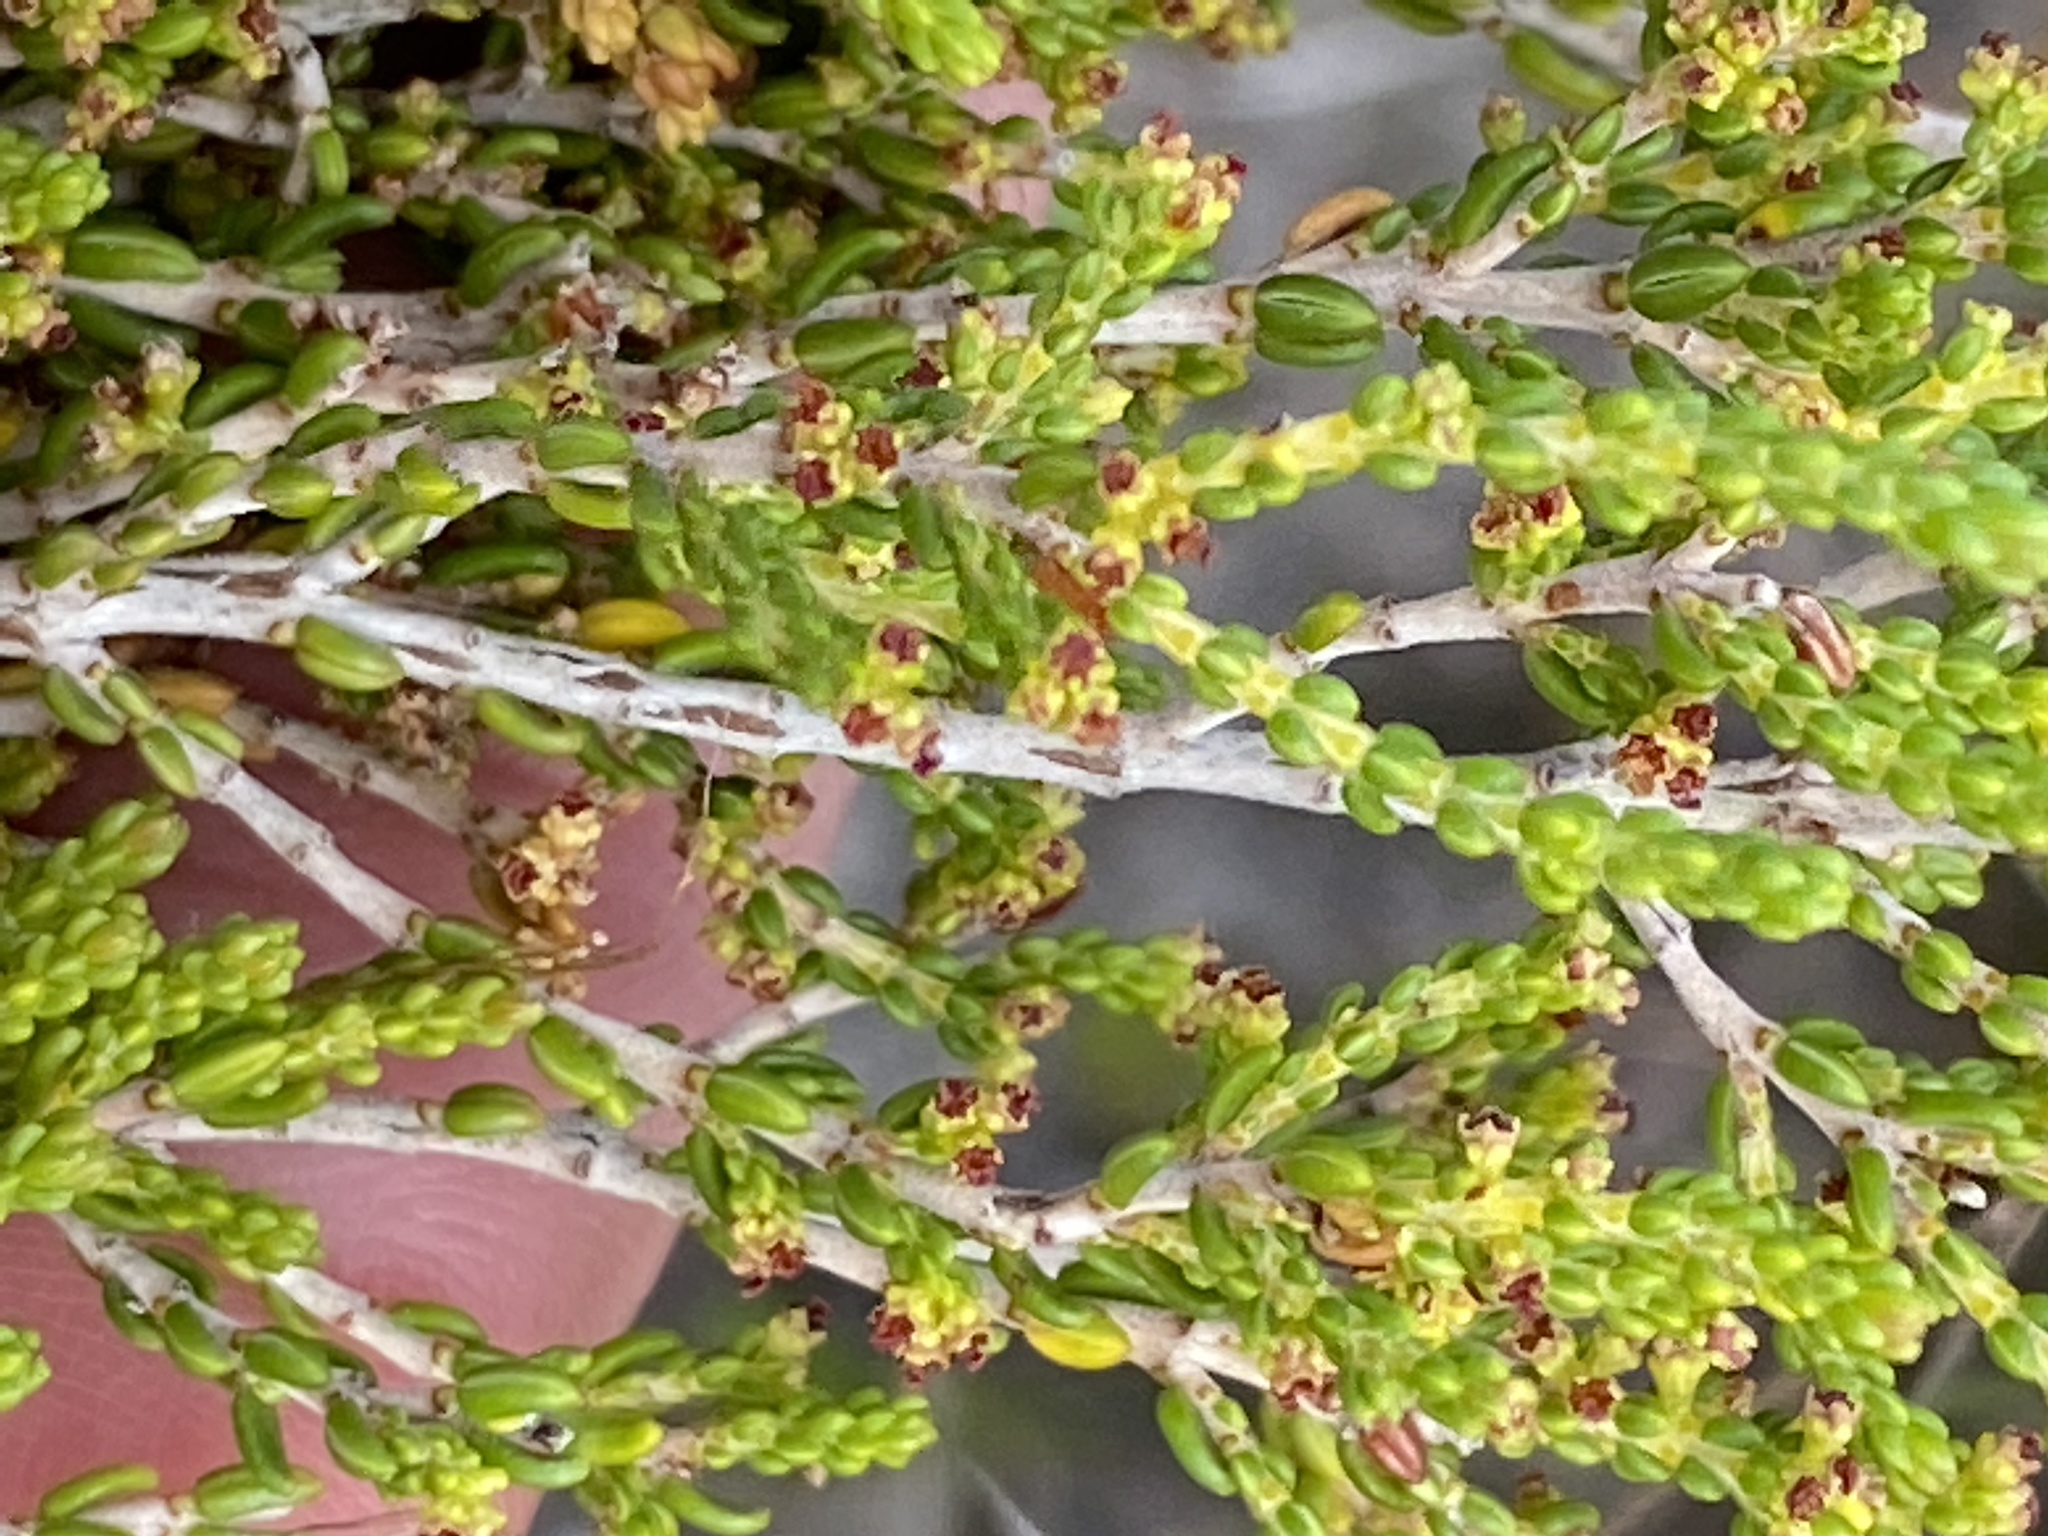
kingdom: Plantae
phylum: Tracheophyta
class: Magnoliopsida
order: Ericales
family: Ericaceae
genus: Erica
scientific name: Erica calcicola
